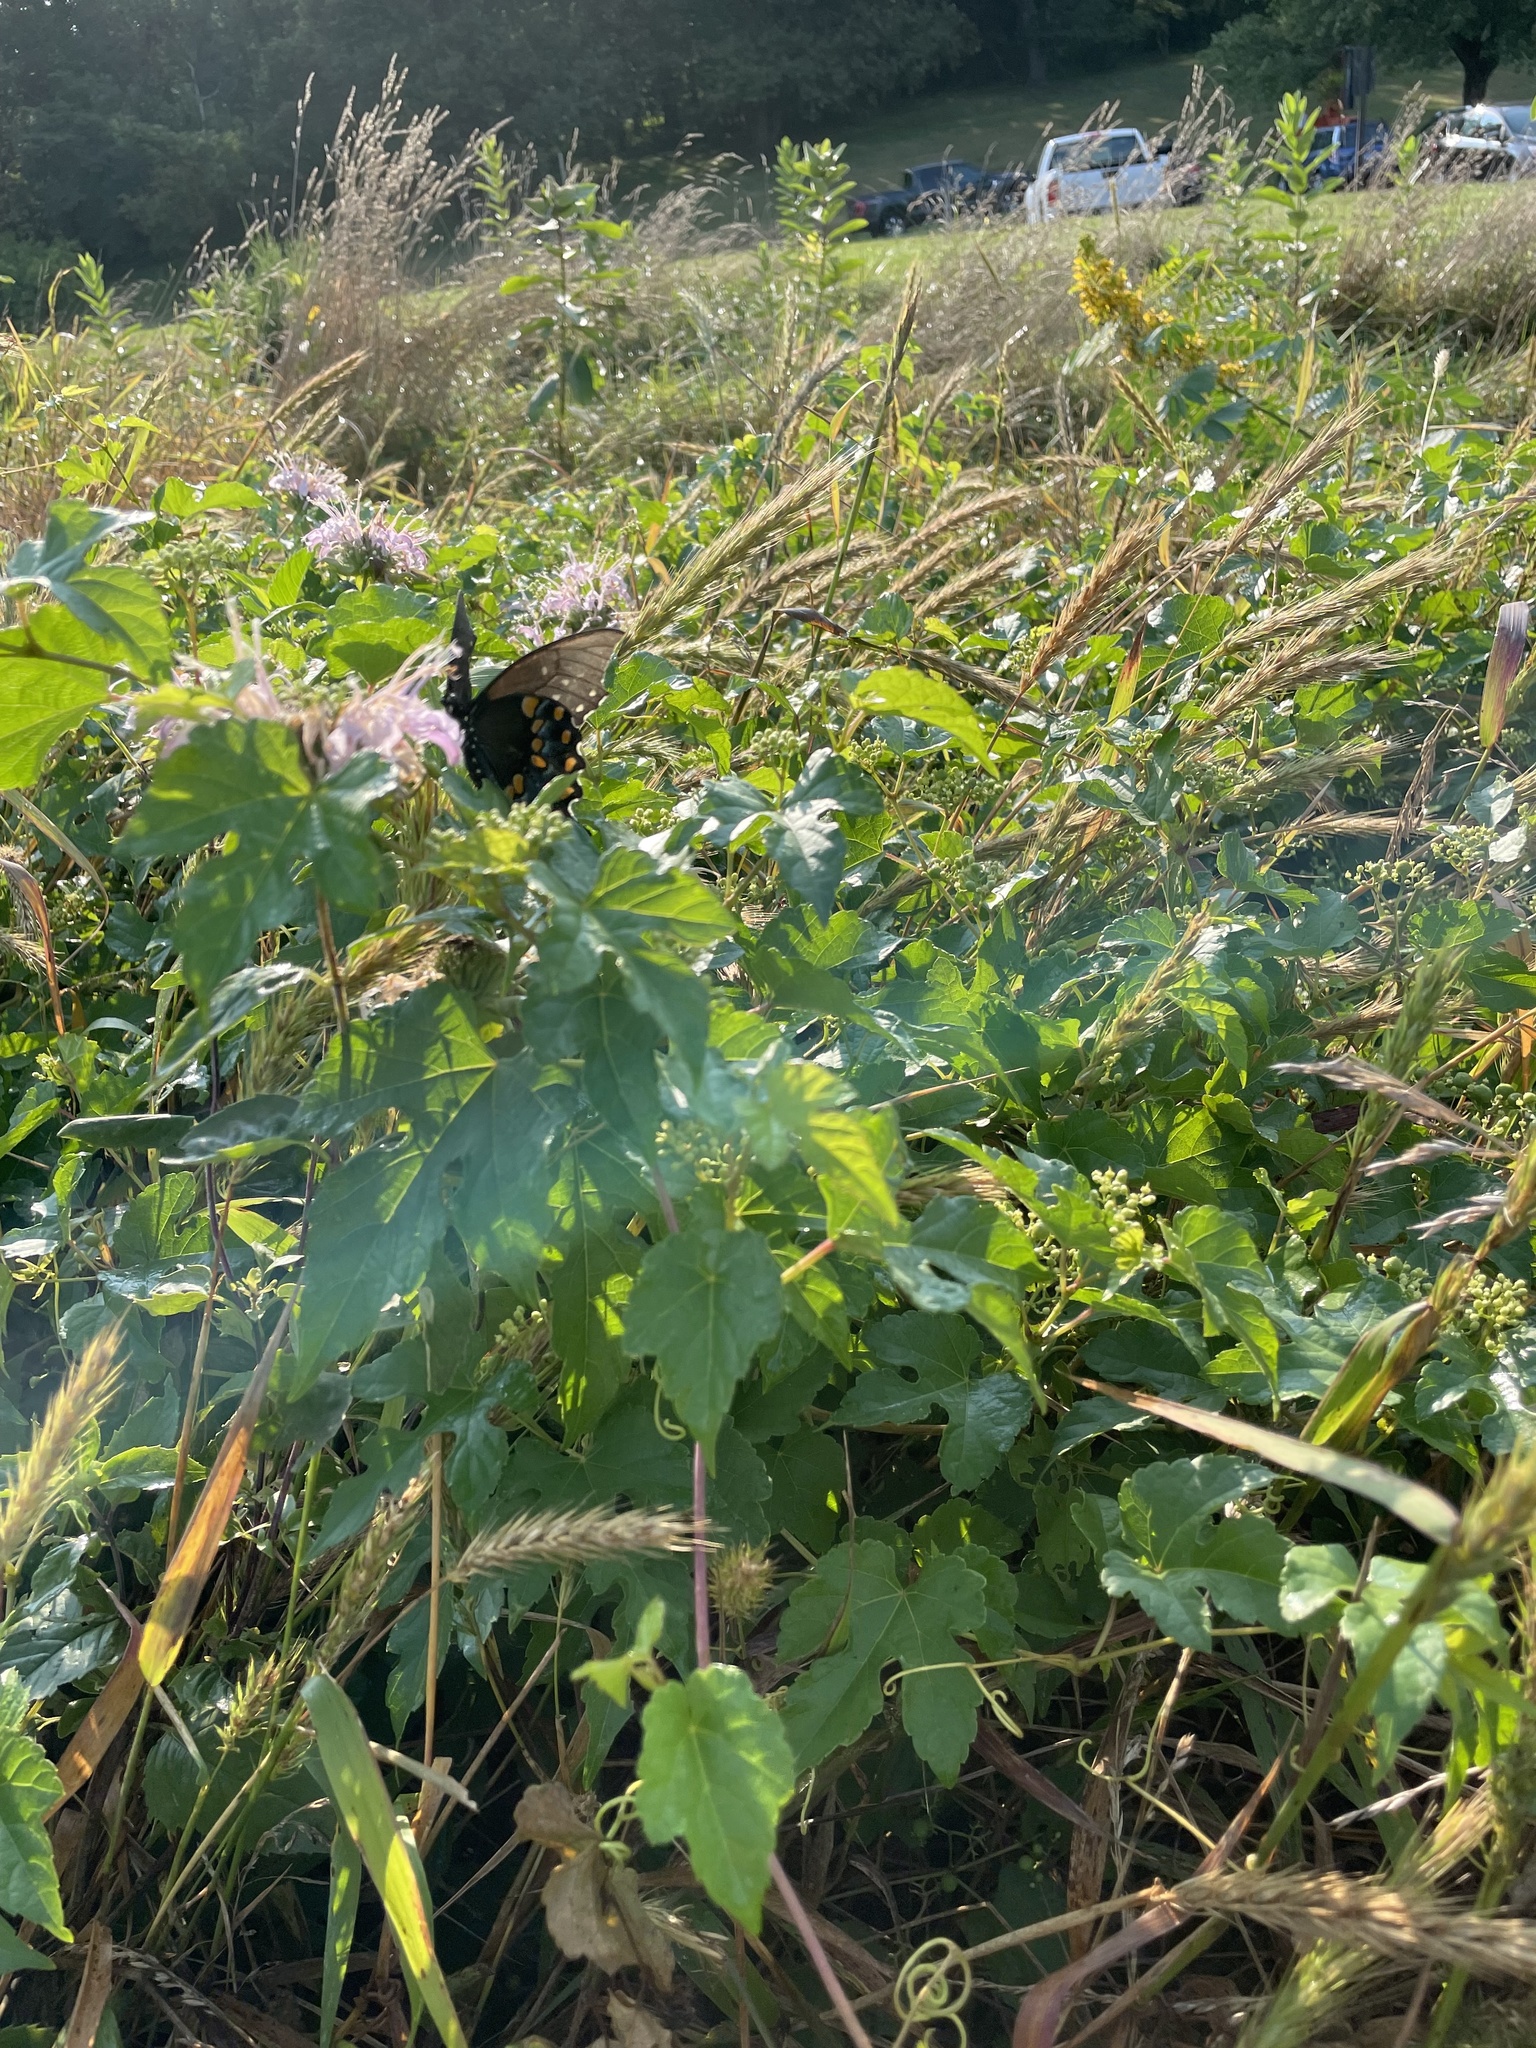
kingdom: Animalia
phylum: Arthropoda
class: Insecta
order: Lepidoptera
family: Papilionidae
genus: Papilio
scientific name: Papilio troilus
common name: Spicebush swallowtail
